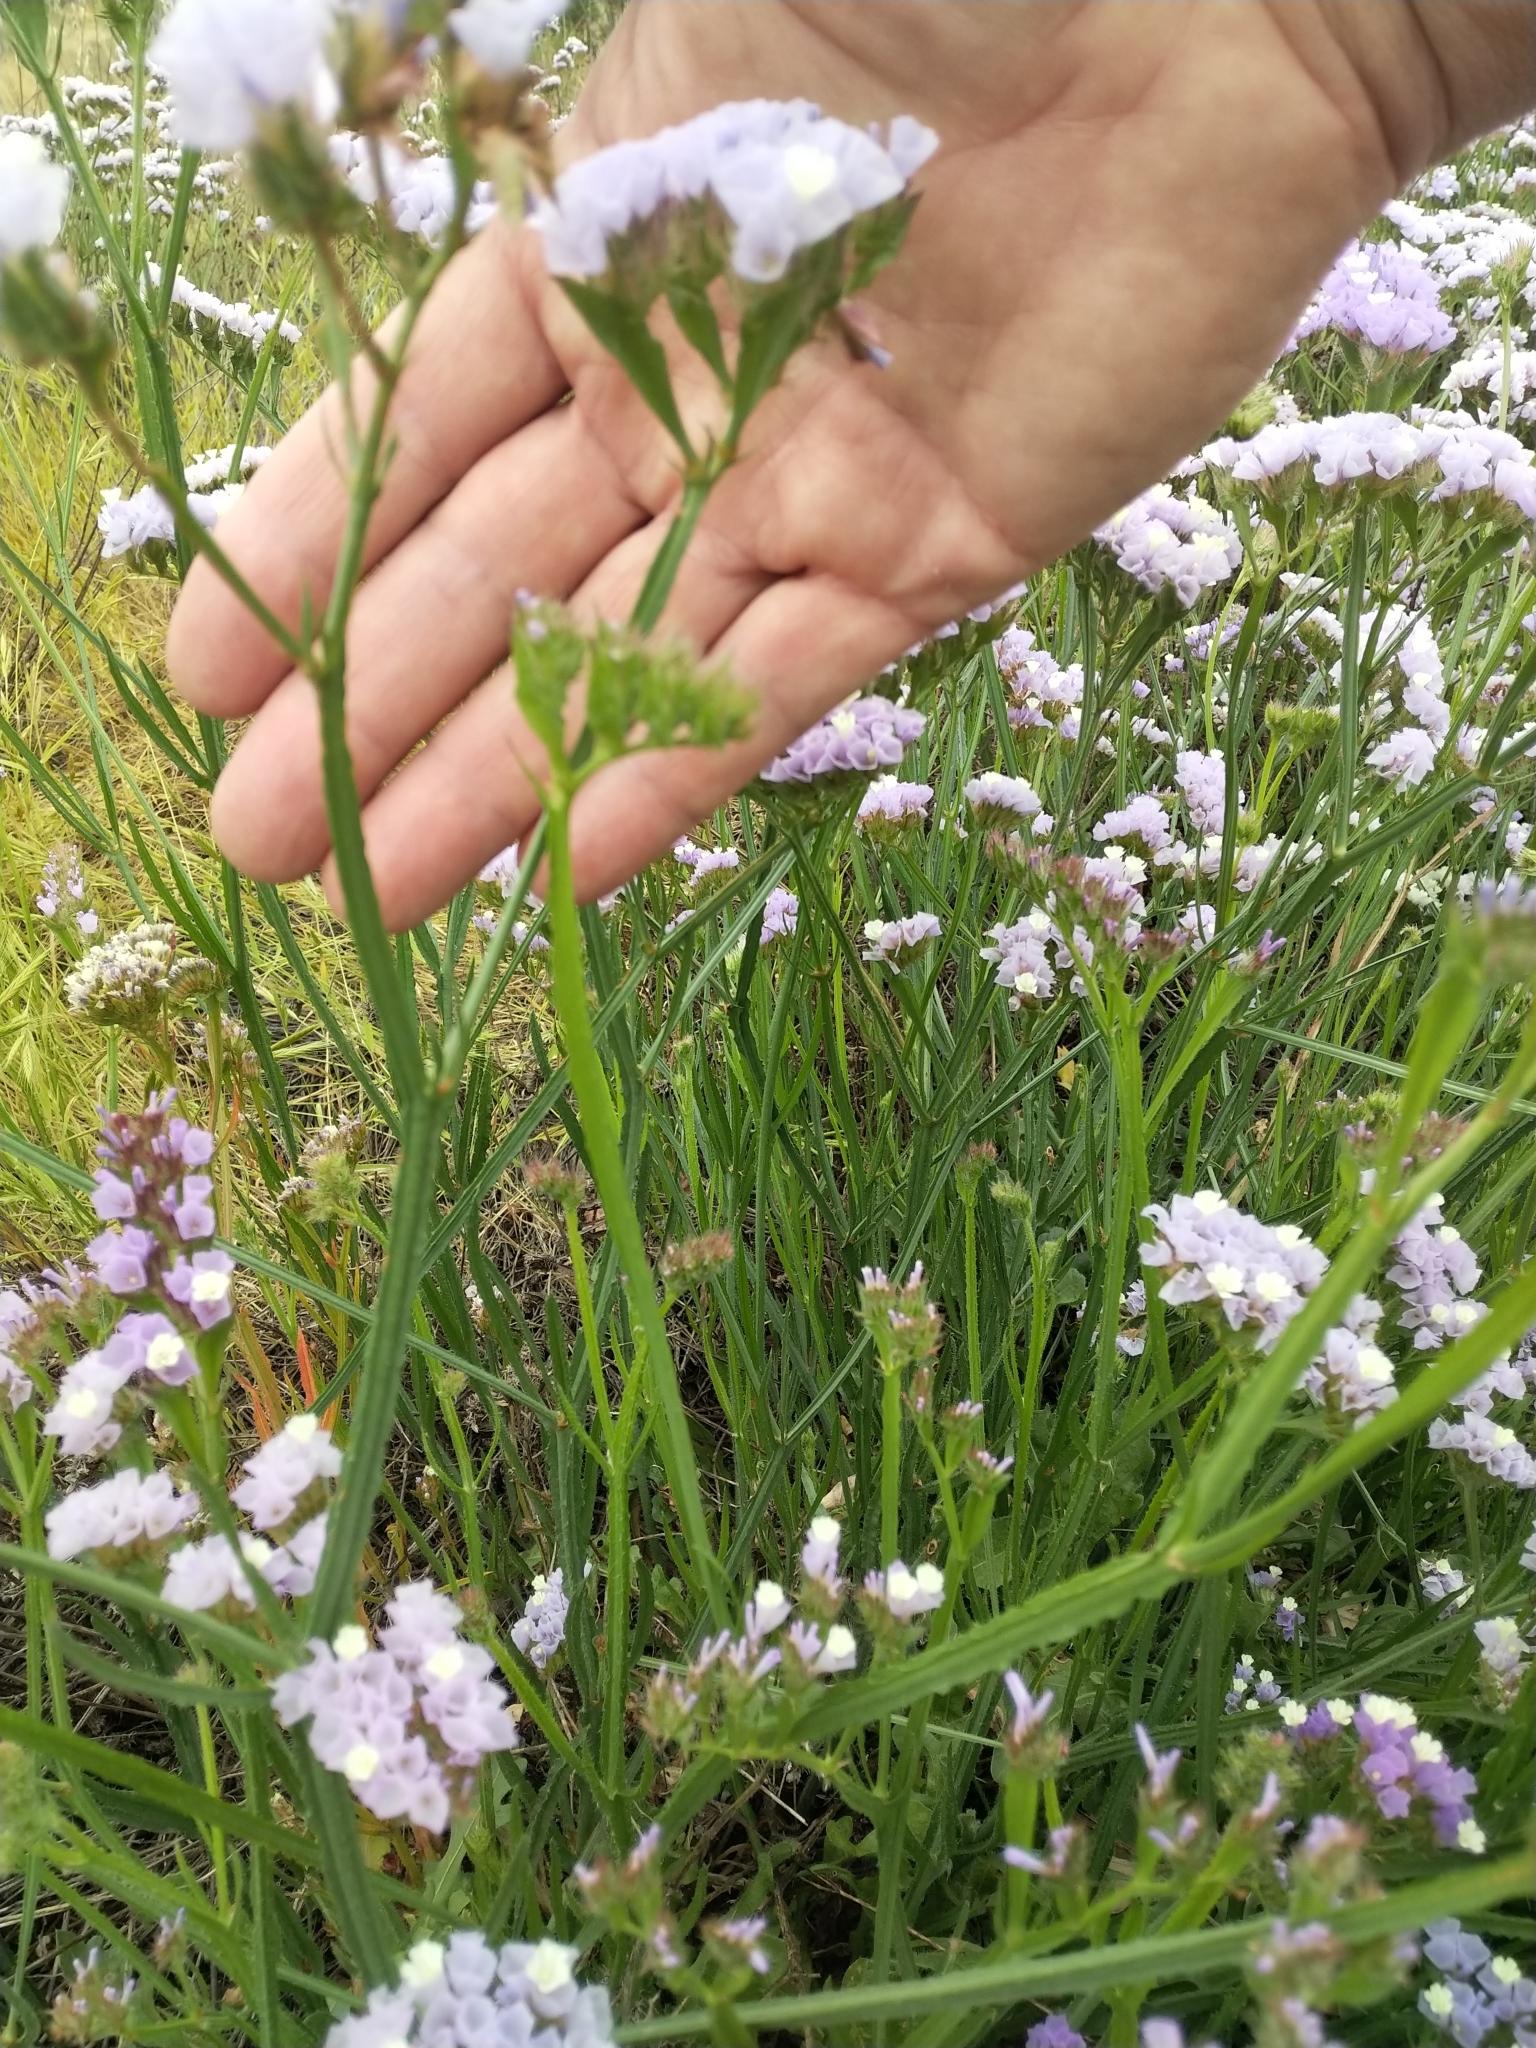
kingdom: Plantae
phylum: Tracheophyta
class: Magnoliopsida
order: Caryophyllales
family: Plumbaginaceae
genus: Limonium
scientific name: Limonium sinuatum
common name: Statice
